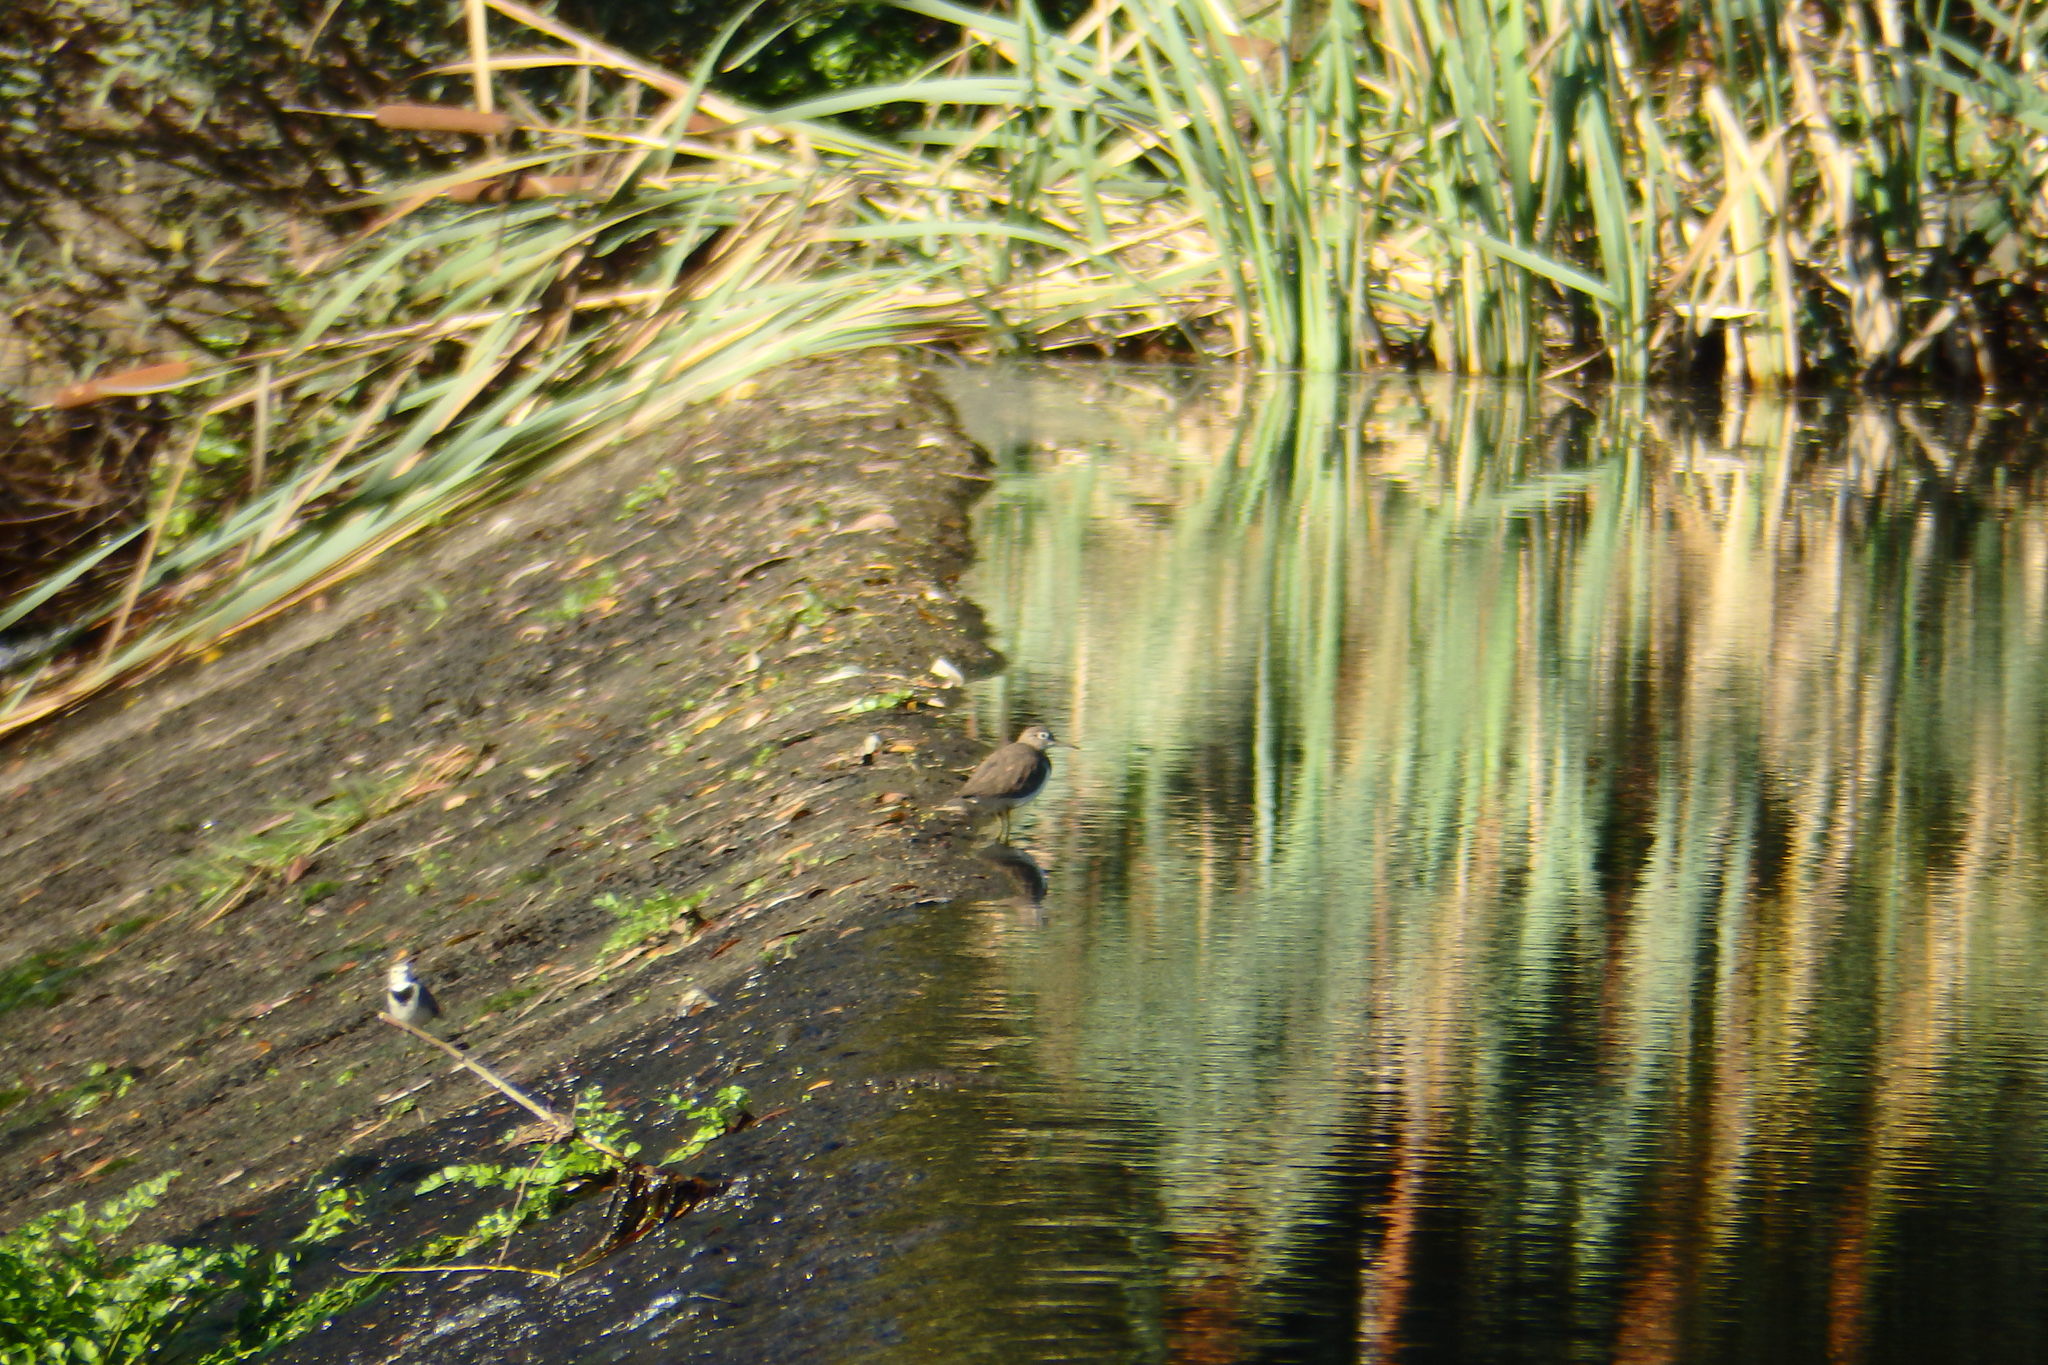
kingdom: Animalia
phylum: Chordata
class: Aves
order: Passeriformes
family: Motacillidae
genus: Motacilla
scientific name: Motacilla alba
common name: White wagtail
